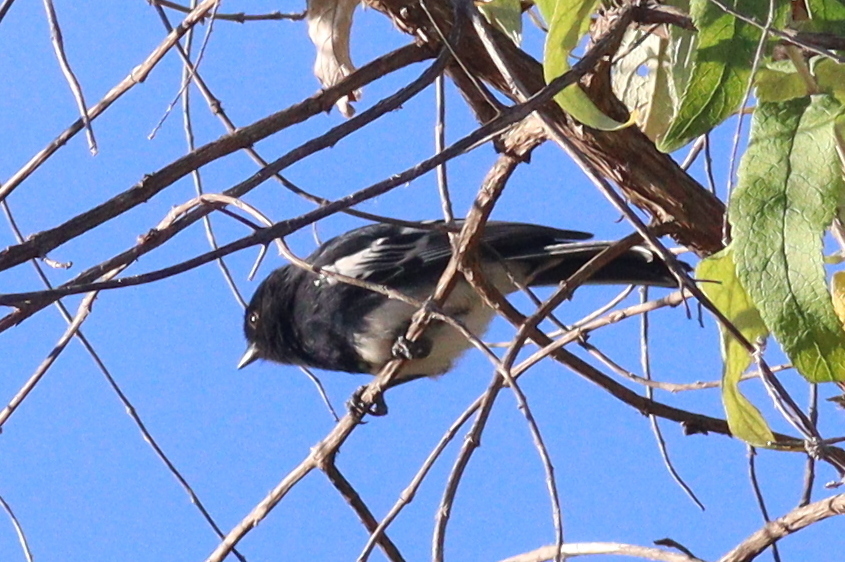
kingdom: Animalia
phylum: Chordata
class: Aves
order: Passeriformes
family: Paridae
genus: Parus
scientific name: Parus albiventris
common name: White-bellied tit
